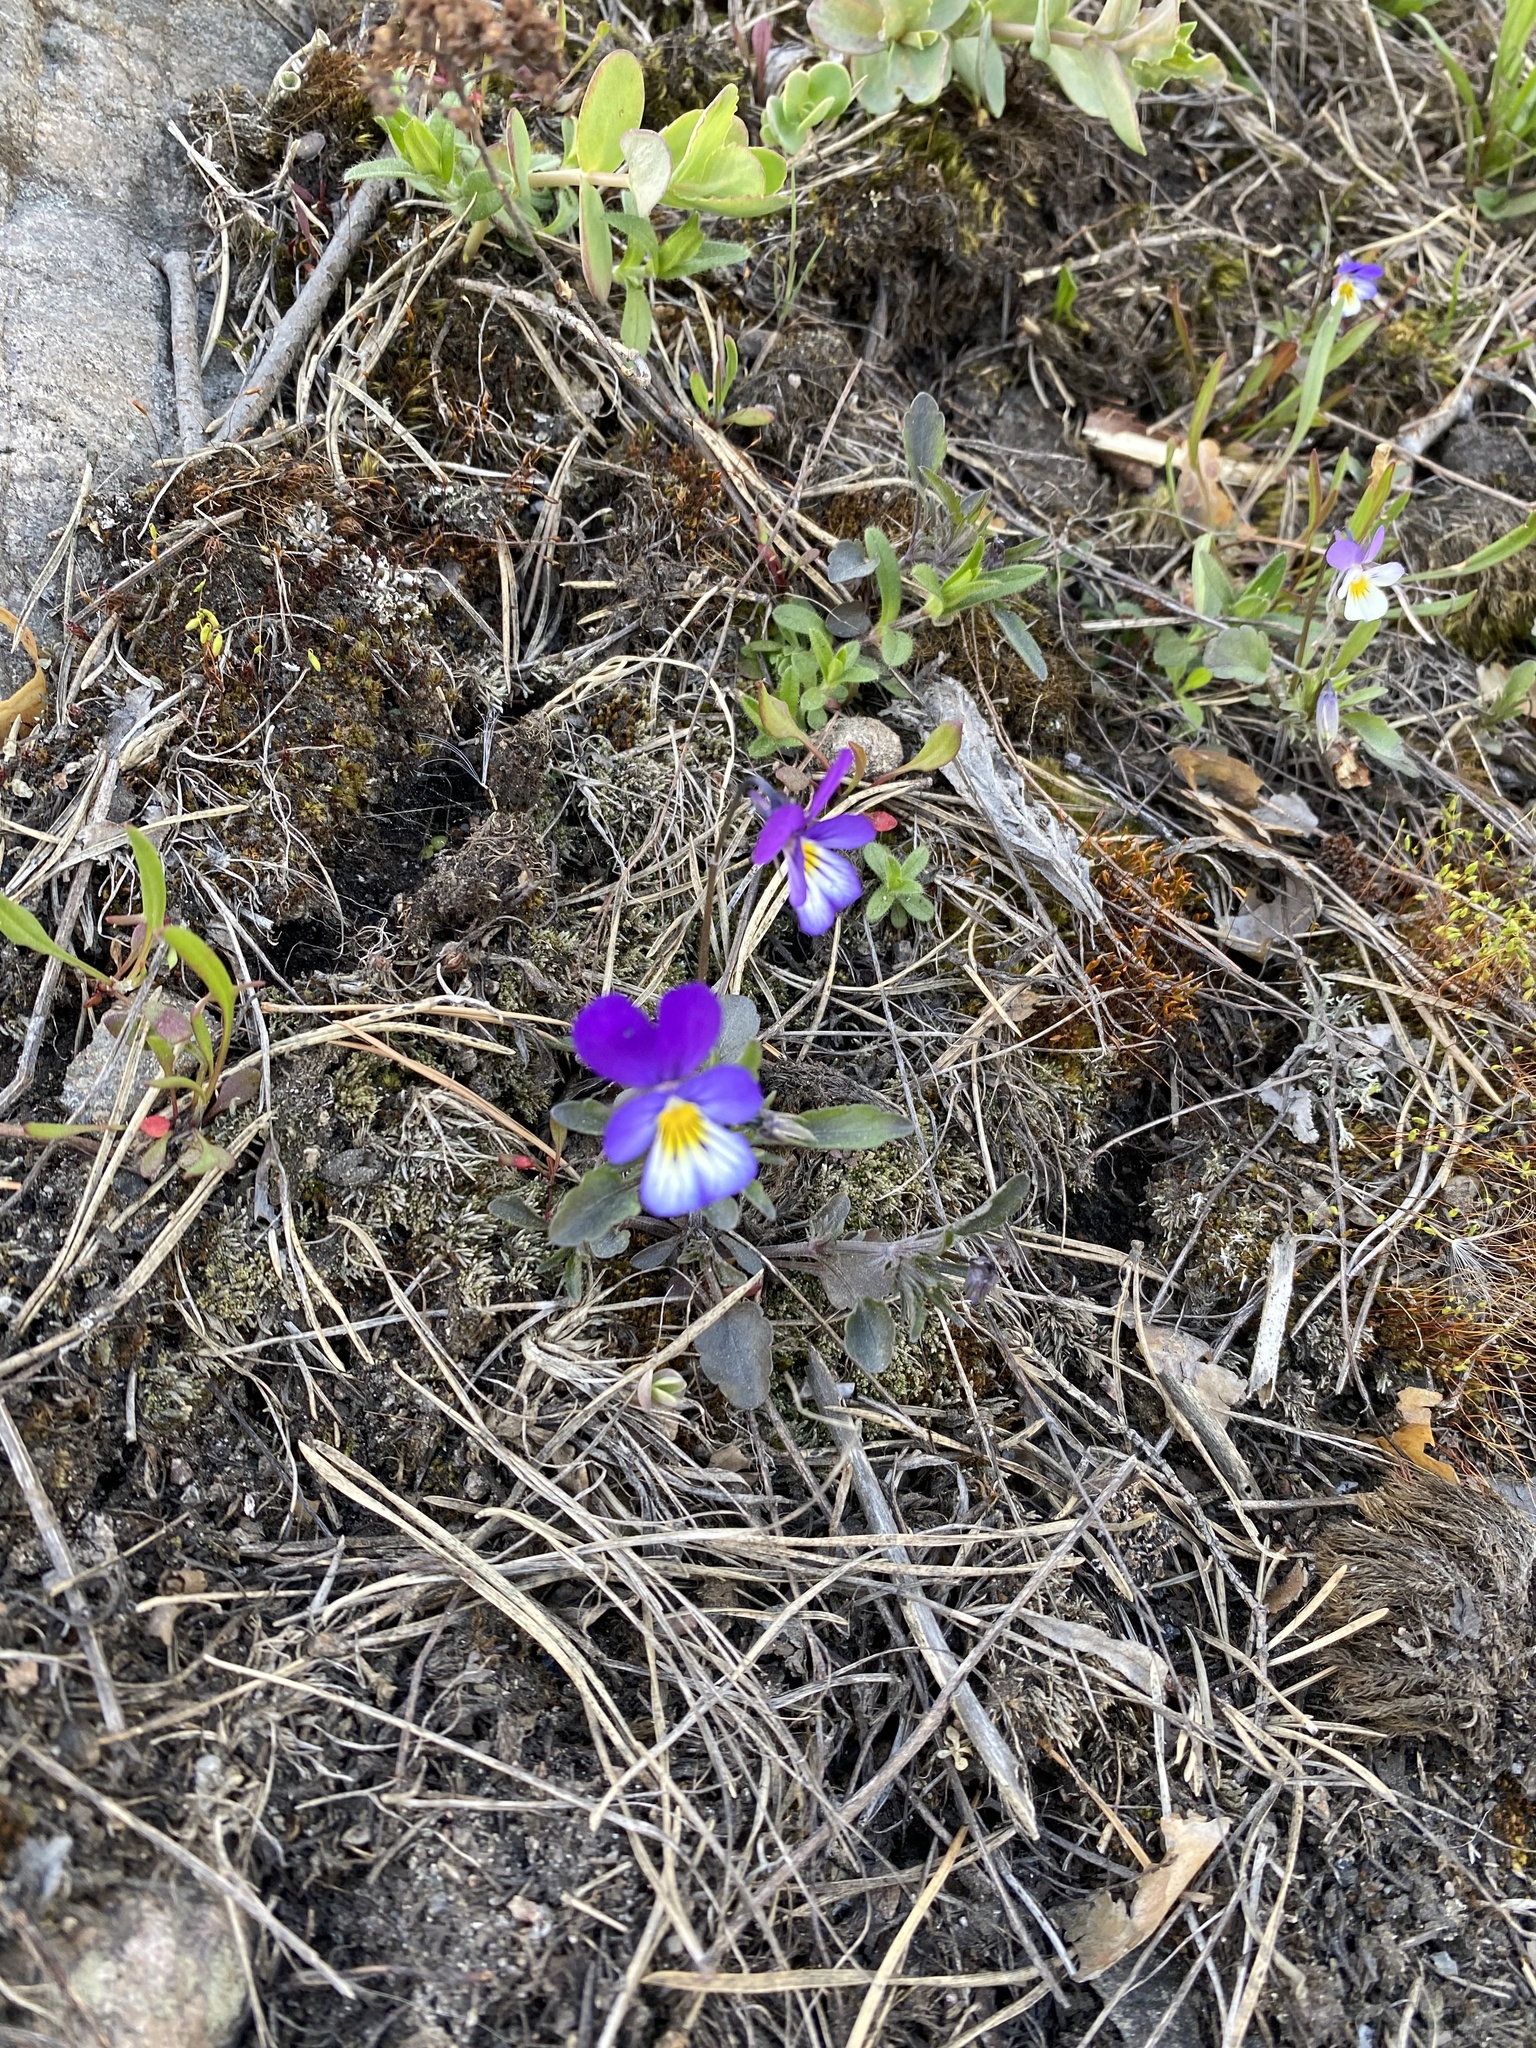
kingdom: Plantae
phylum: Tracheophyta
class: Magnoliopsida
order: Malpighiales
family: Violaceae
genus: Viola
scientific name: Viola tricolor
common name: Pansy
